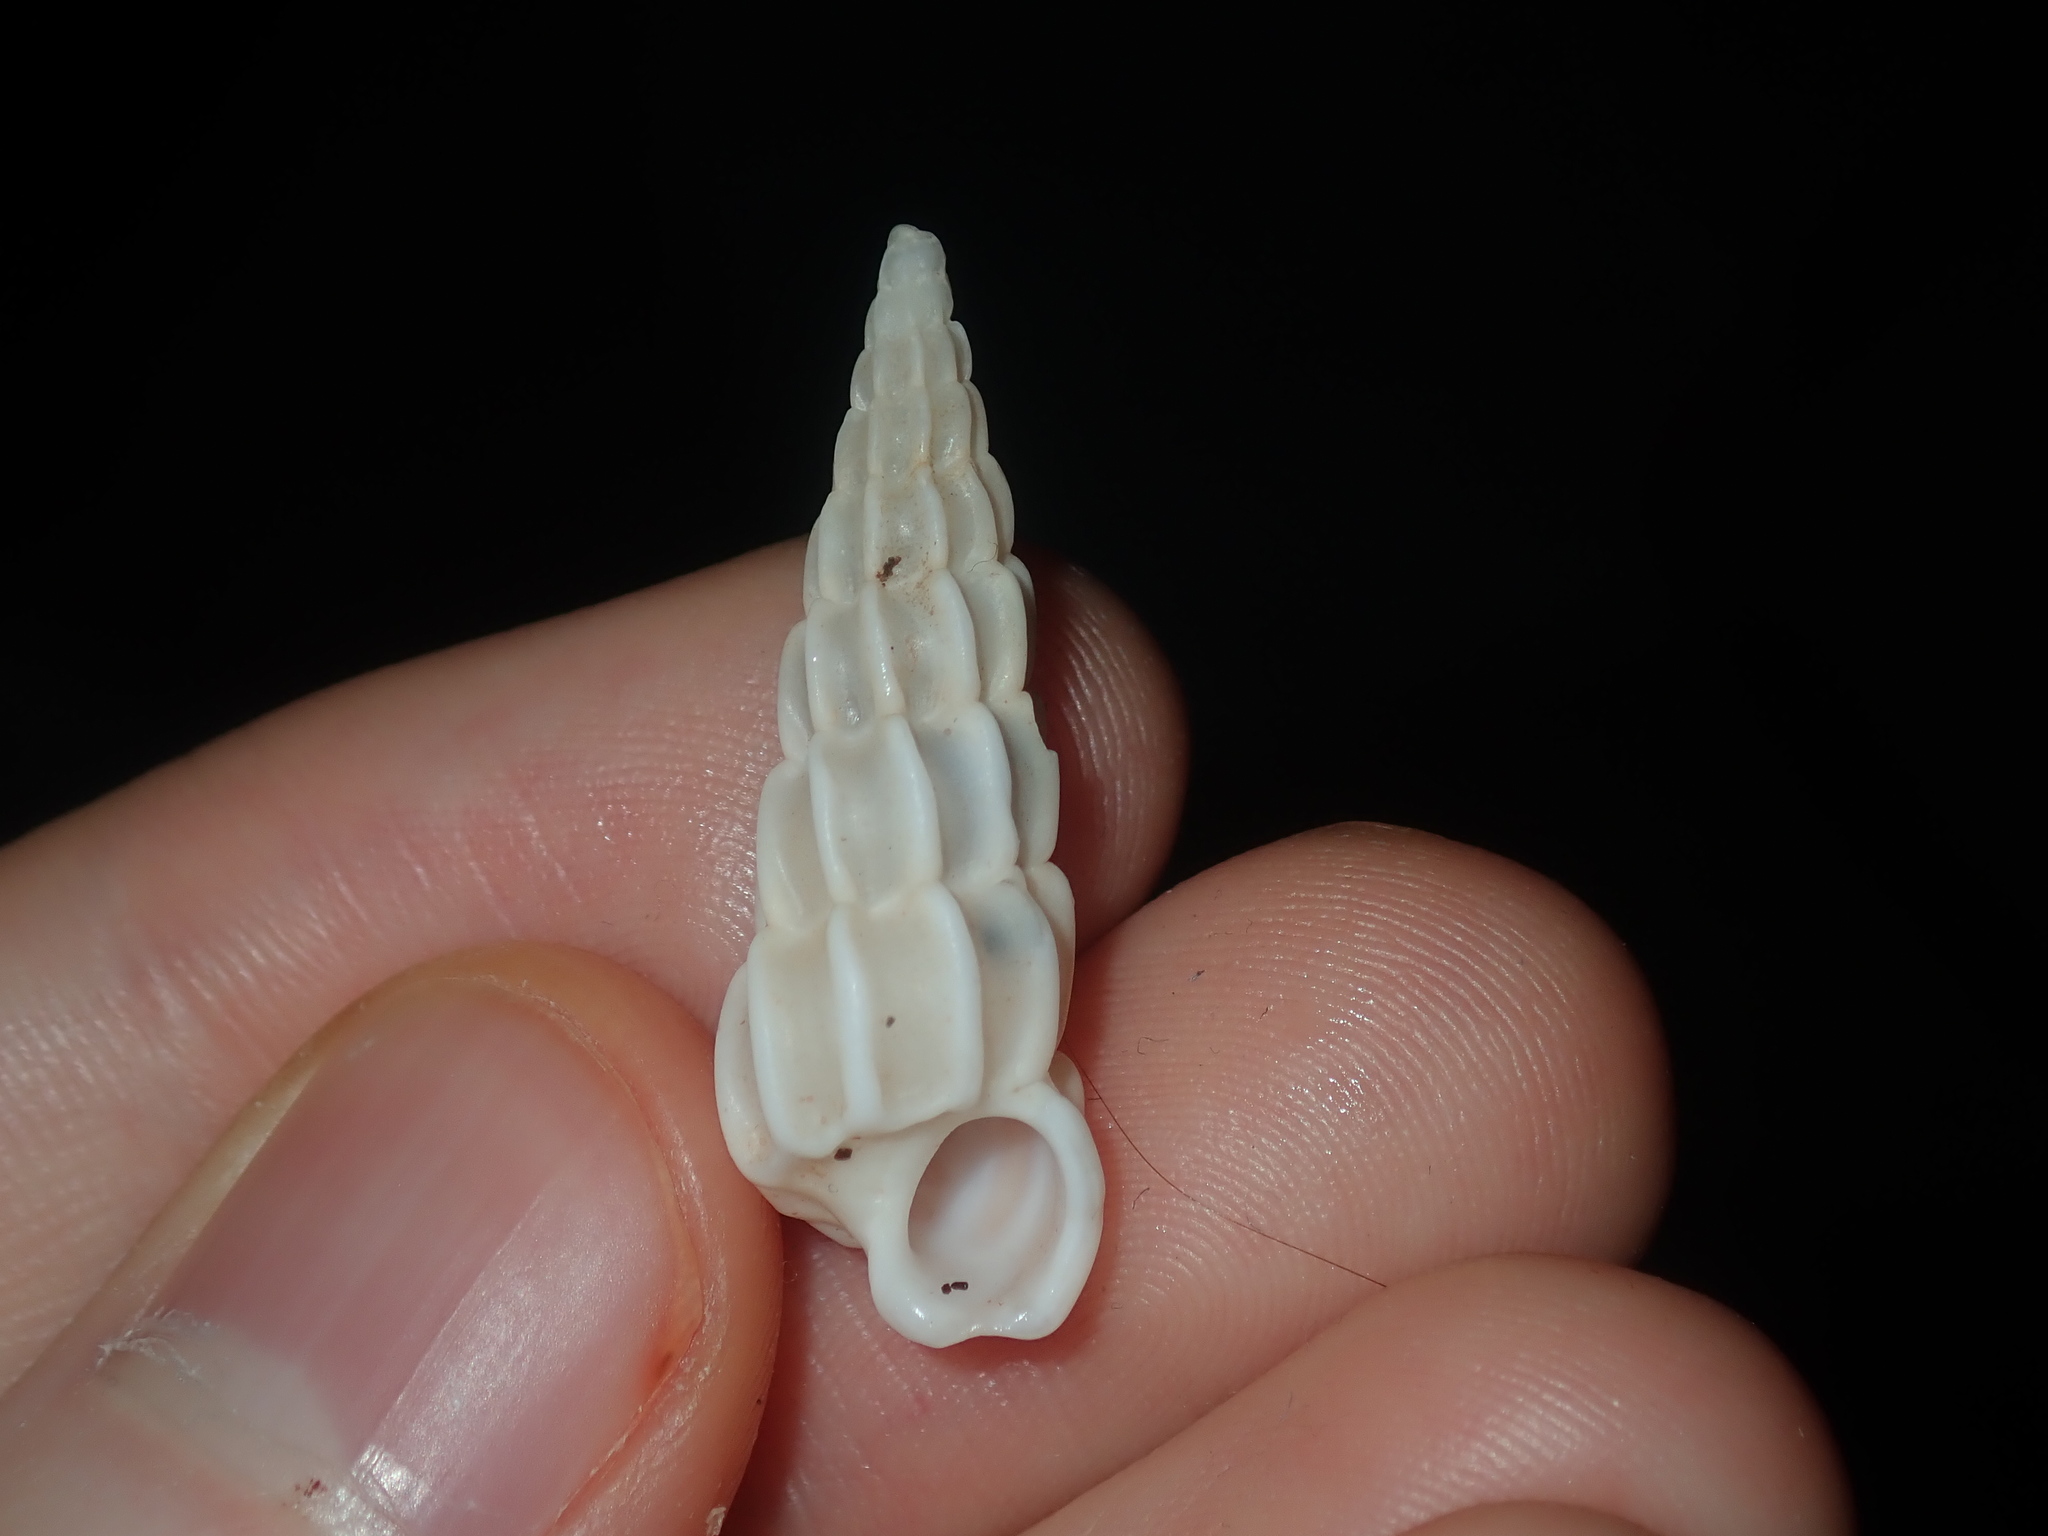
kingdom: Animalia
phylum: Mollusca
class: Gastropoda
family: Epitoniidae
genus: Opalia
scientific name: Opalia australis
